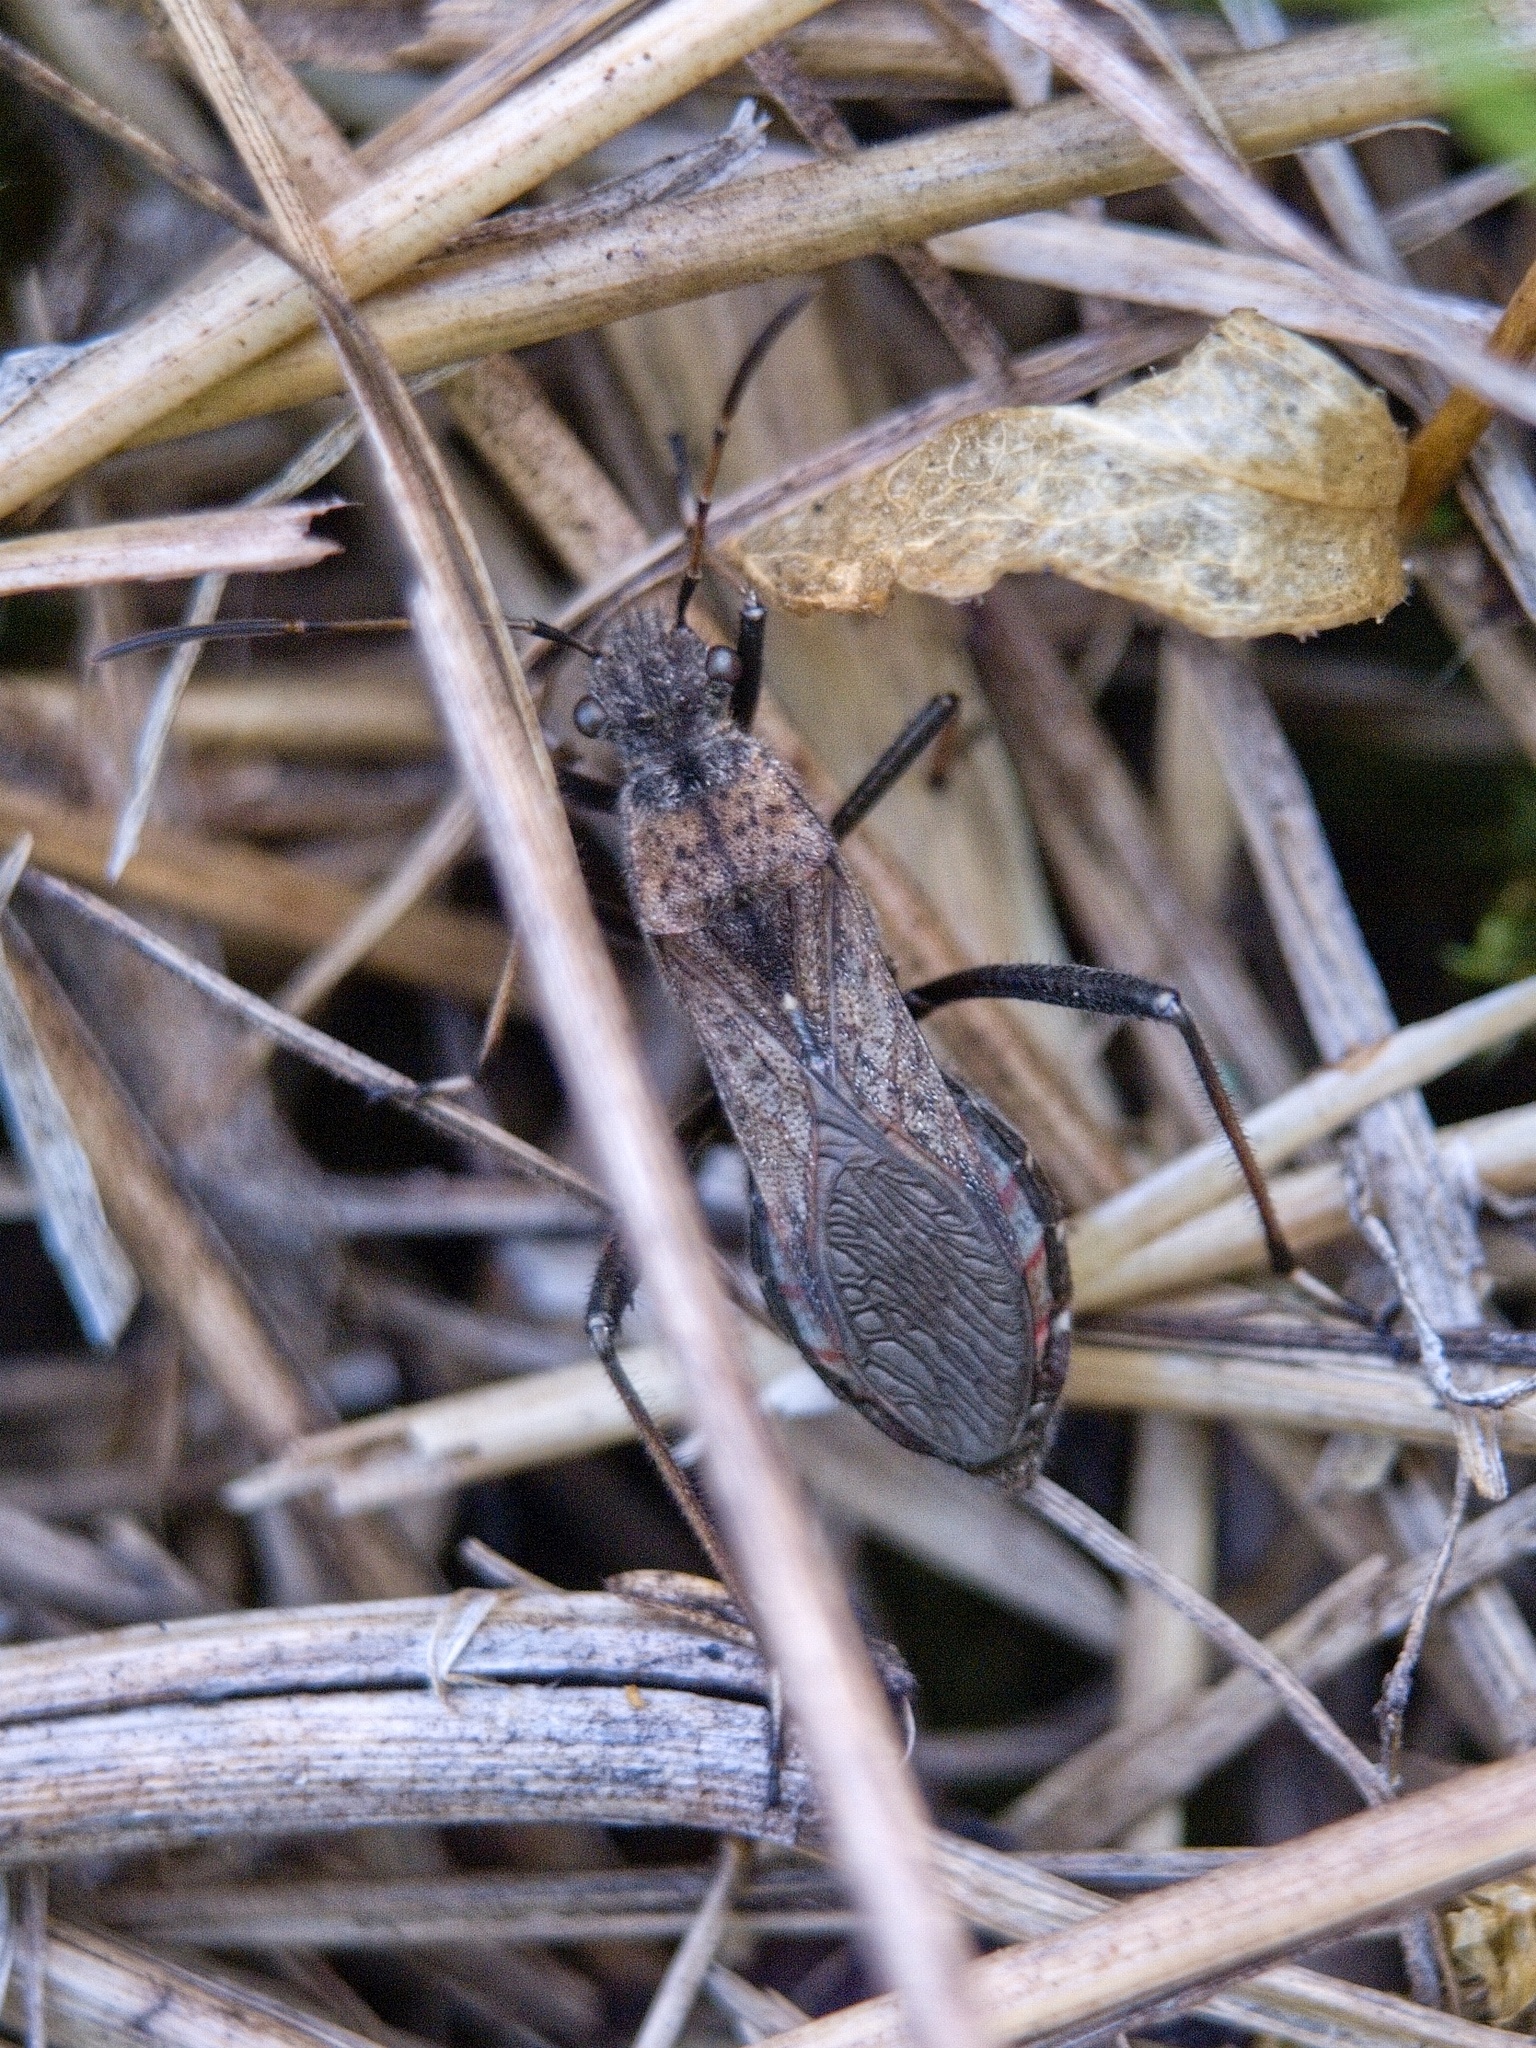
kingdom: Animalia
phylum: Arthropoda
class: Insecta
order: Hemiptera
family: Alydidae
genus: Alydus
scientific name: Alydus calcaratus
